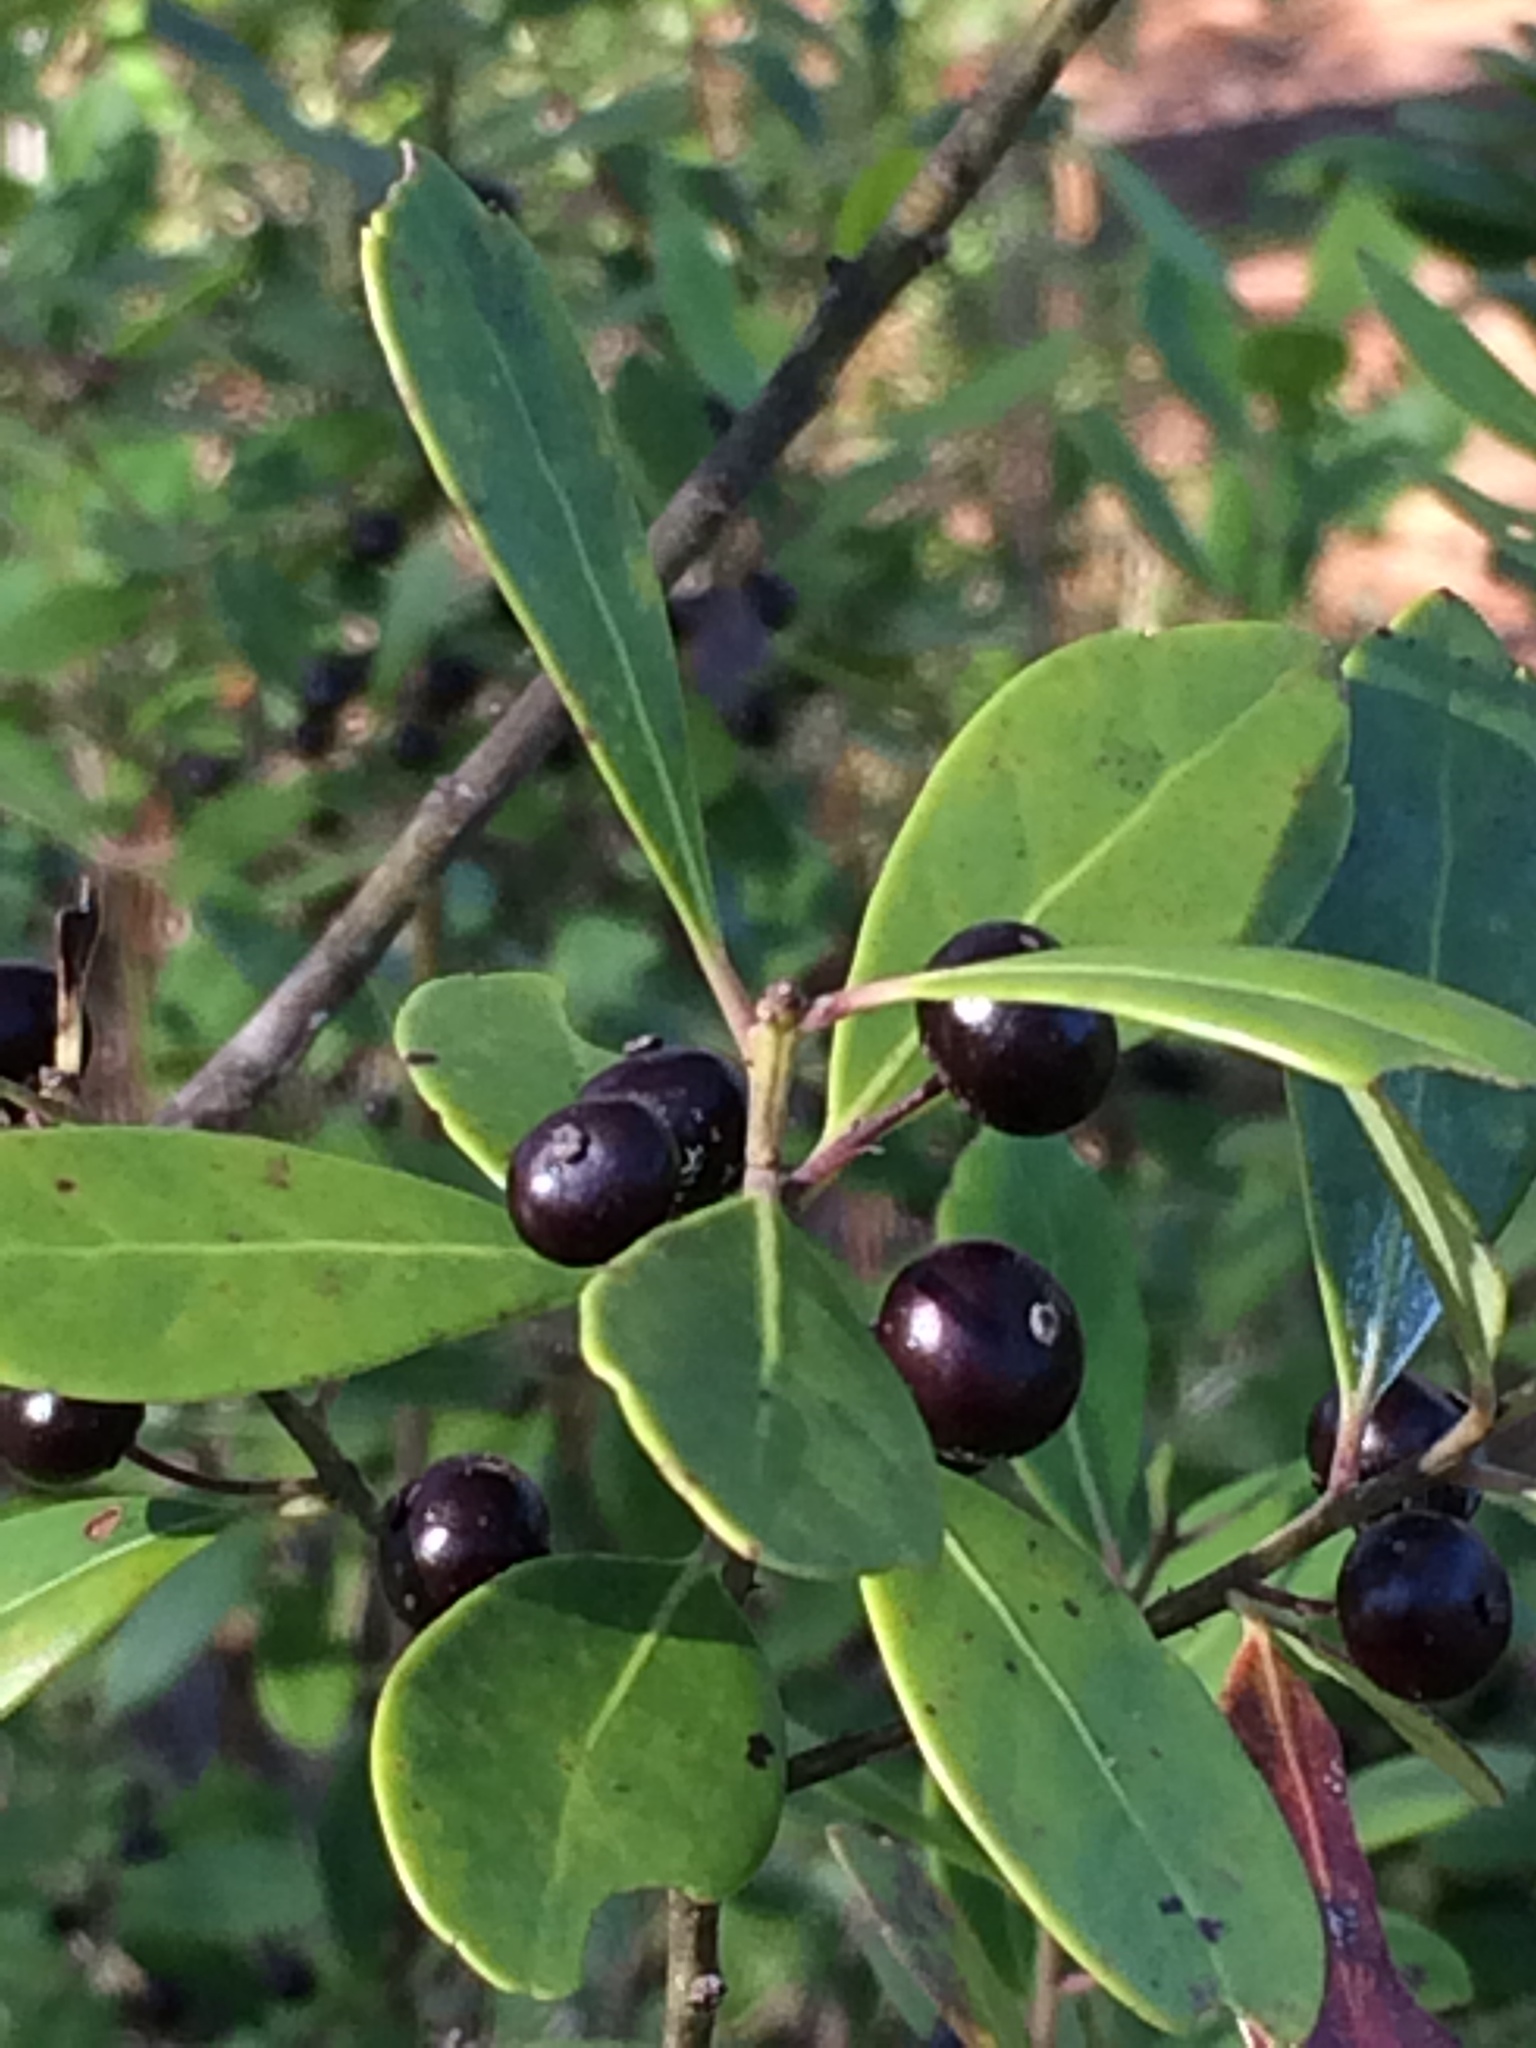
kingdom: Plantae
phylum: Tracheophyta
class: Magnoliopsida
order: Aquifoliales
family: Aquifoliaceae
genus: Ilex
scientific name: Ilex glabra
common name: Bitter gallberry
